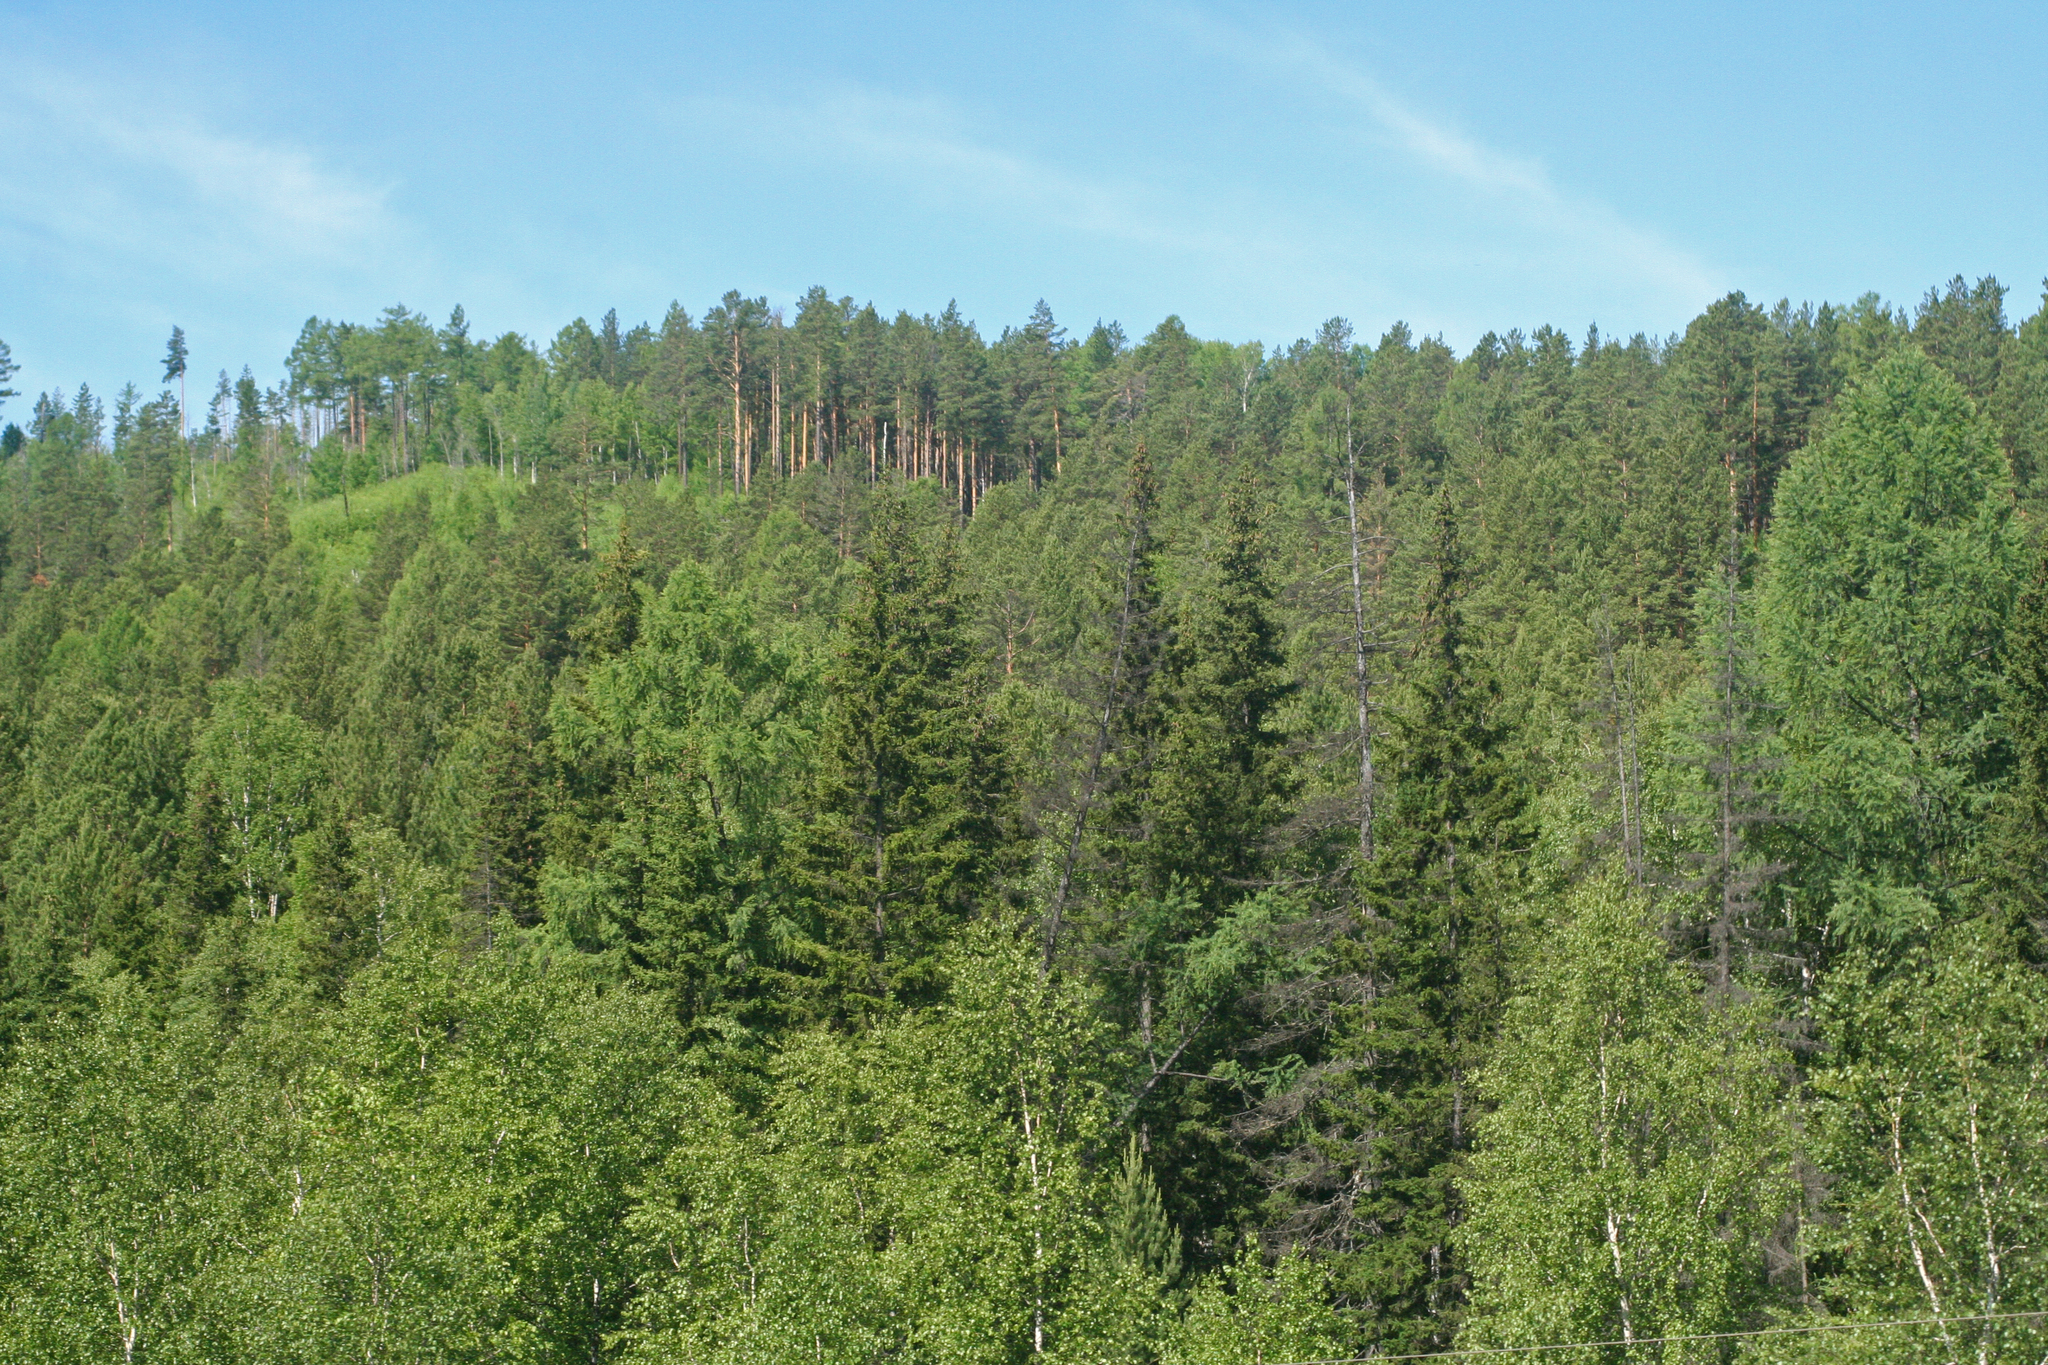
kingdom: Plantae
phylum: Tracheophyta
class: Pinopsida
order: Pinales
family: Pinaceae
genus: Picea
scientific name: Picea obovata
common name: Siberian spruce
